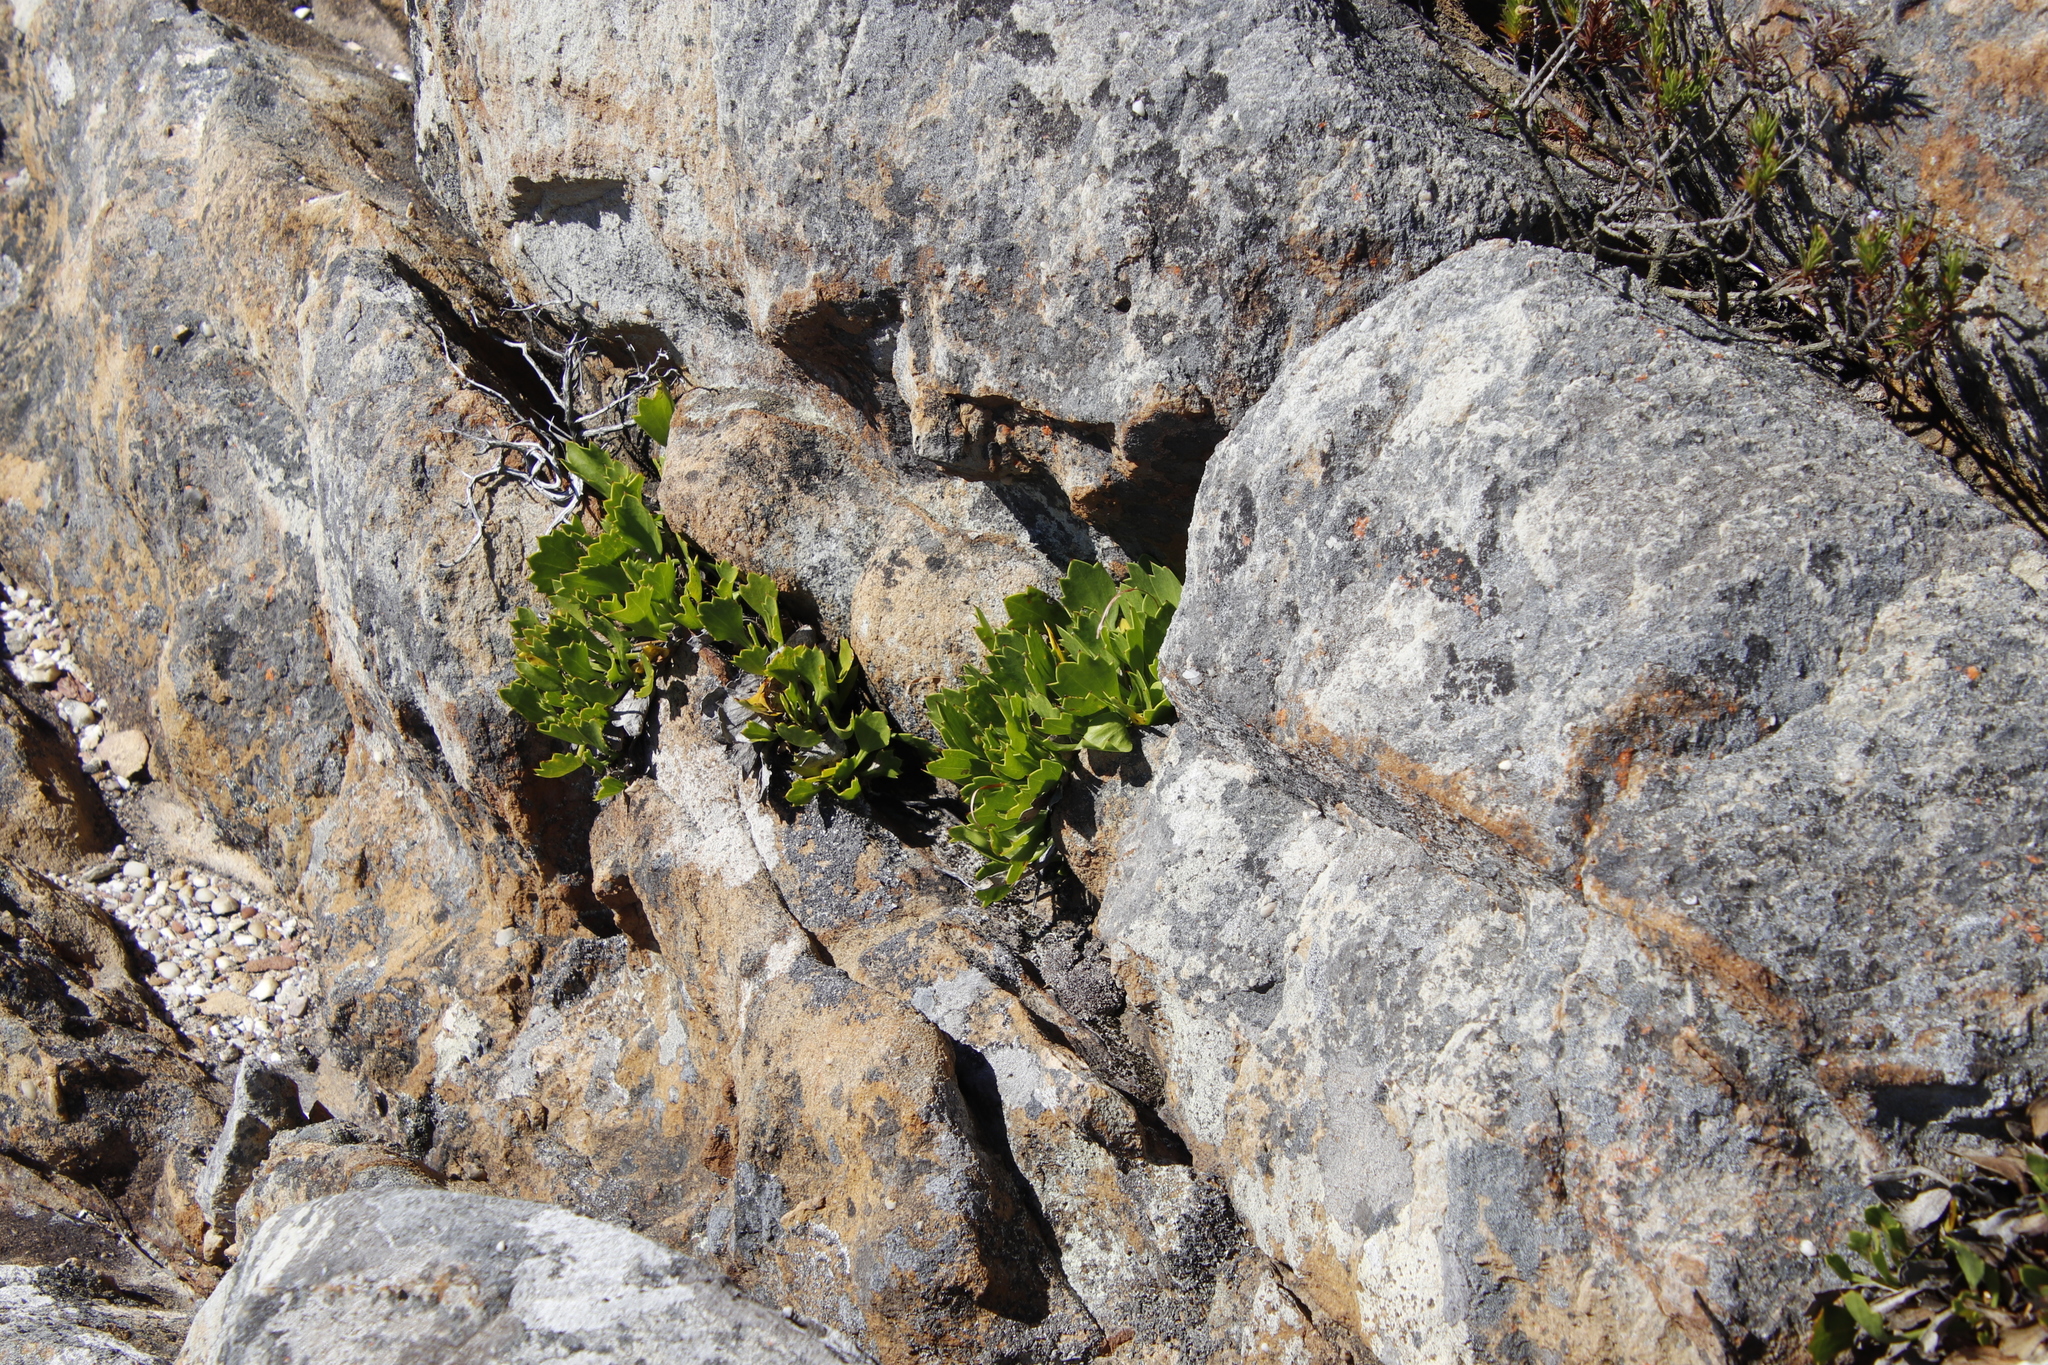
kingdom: Plantae
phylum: Tracheophyta
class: Magnoliopsida
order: Apiales
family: Apiaceae
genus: Centella
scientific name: Centella triloba
